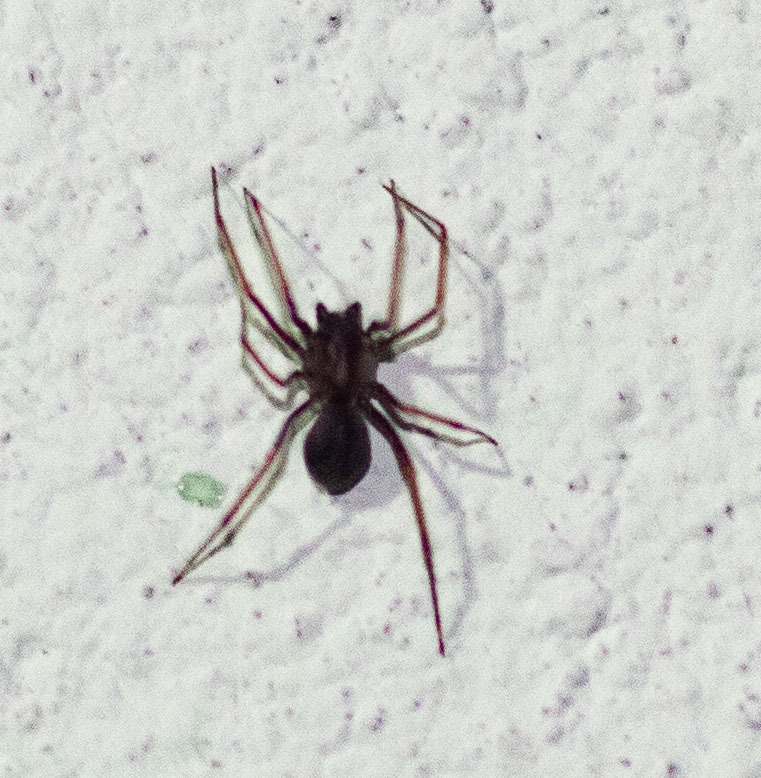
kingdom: Animalia
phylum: Arthropoda
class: Arachnida
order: Araneae
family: Scytodidae
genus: Scytodes
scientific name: Scytodes fusca
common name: Spitting spiders
